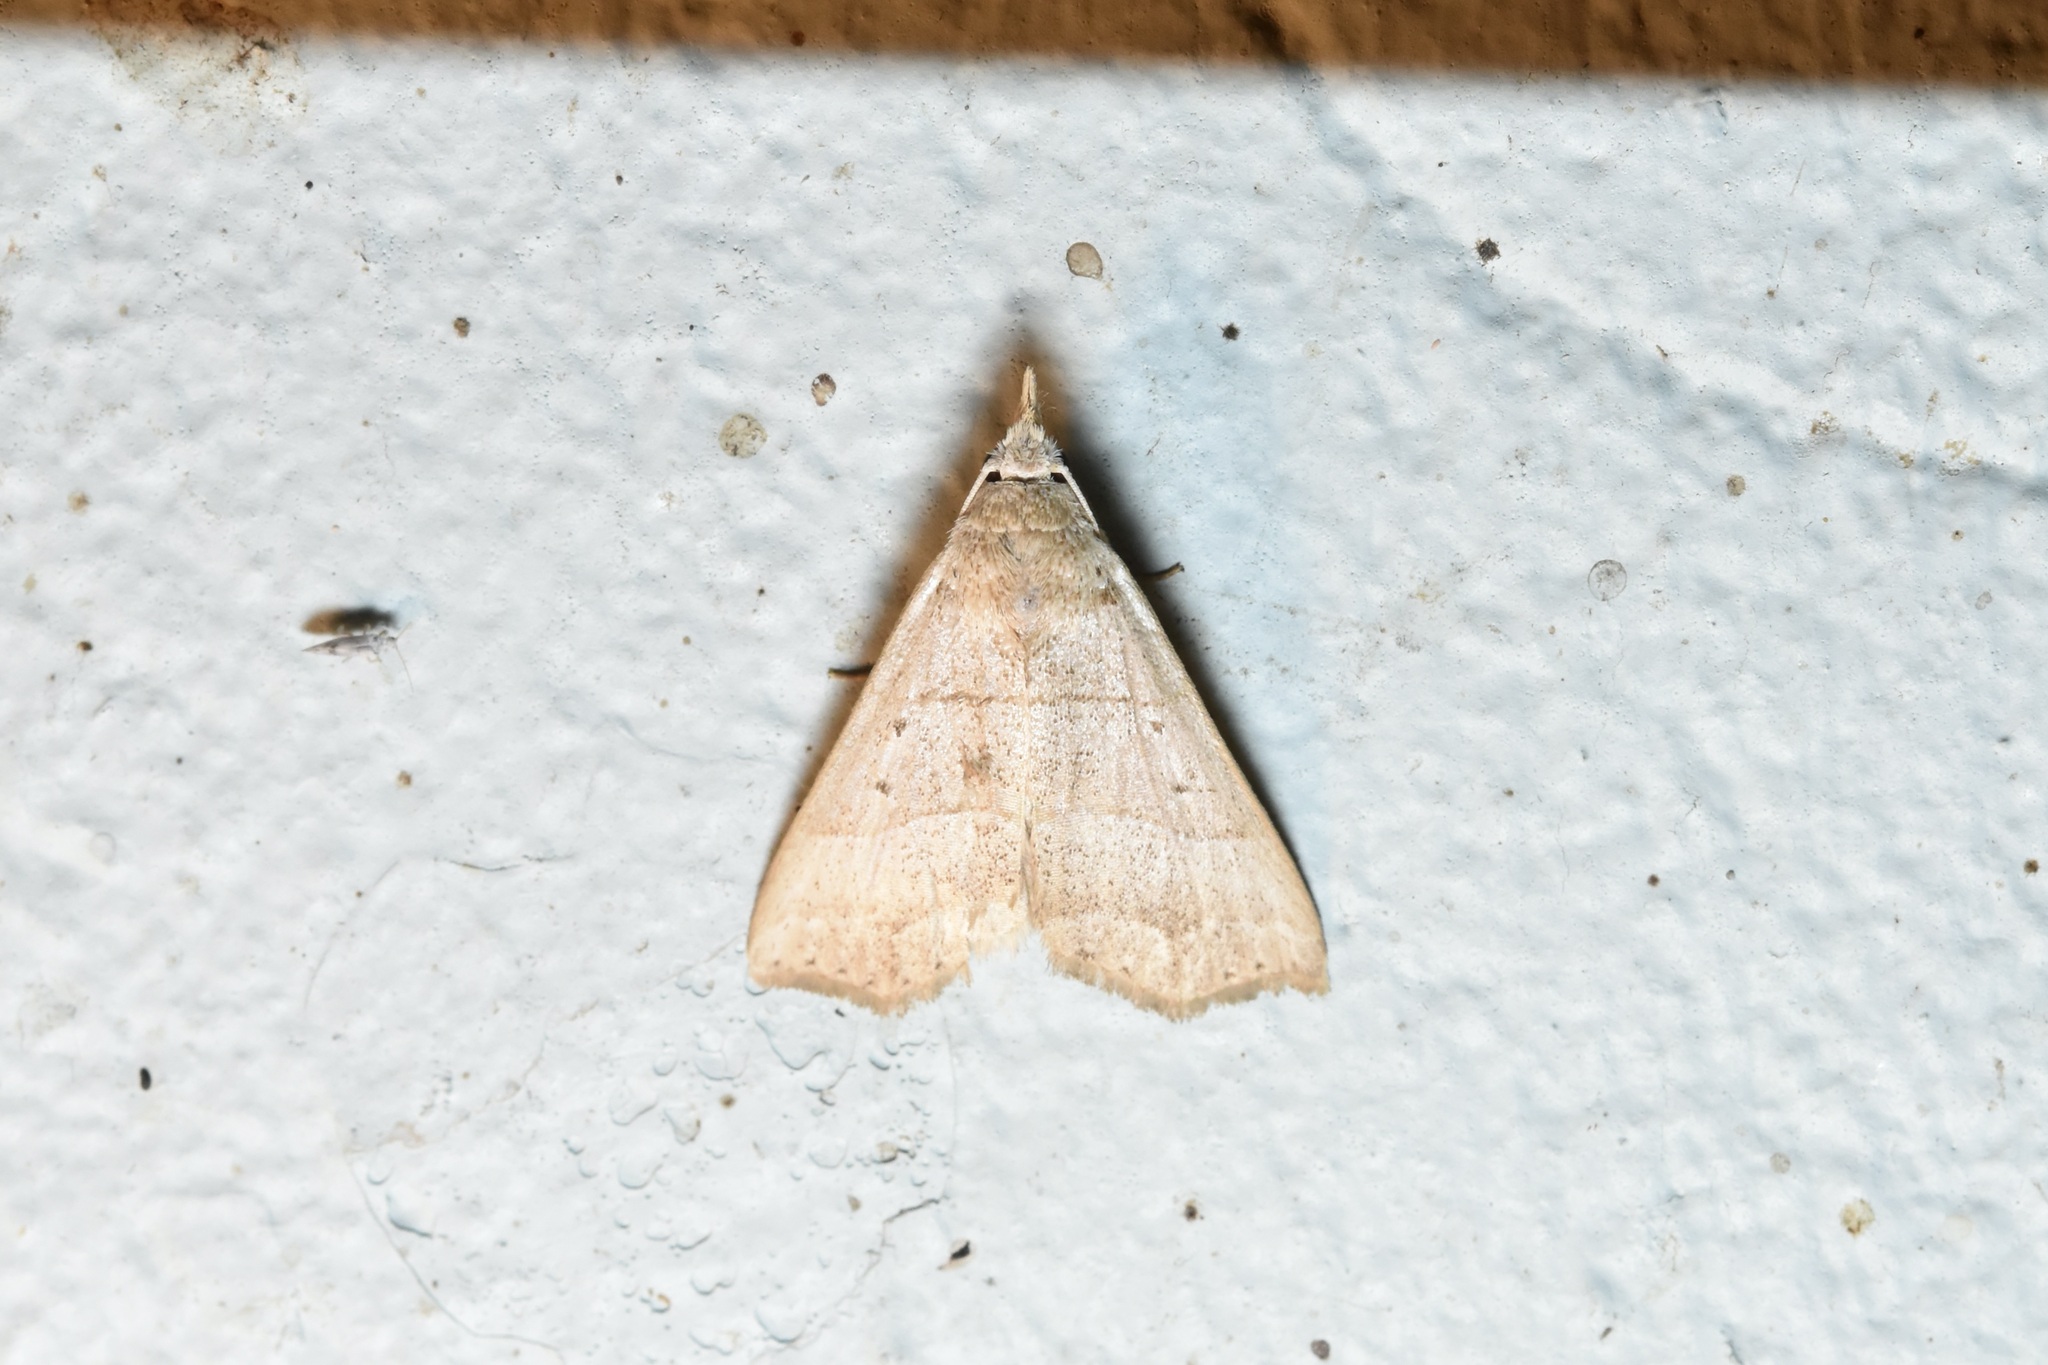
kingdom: Animalia
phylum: Arthropoda
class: Insecta
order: Lepidoptera
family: Erebidae
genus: Hyamia
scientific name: Hyamia Ensipia trilineata
